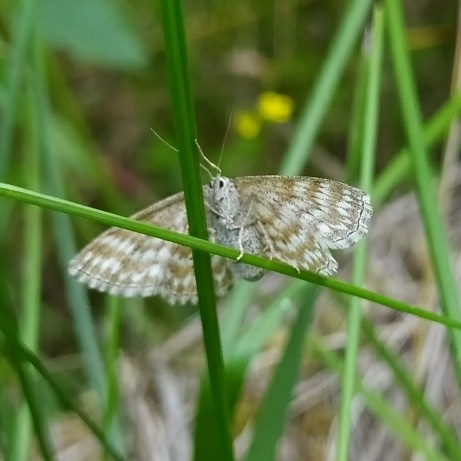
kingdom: Animalia
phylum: Arthropoda
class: Insecta
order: Lepidoptera
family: Geometridae
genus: Scopula
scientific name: Scopula immorata
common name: Lewes wave
